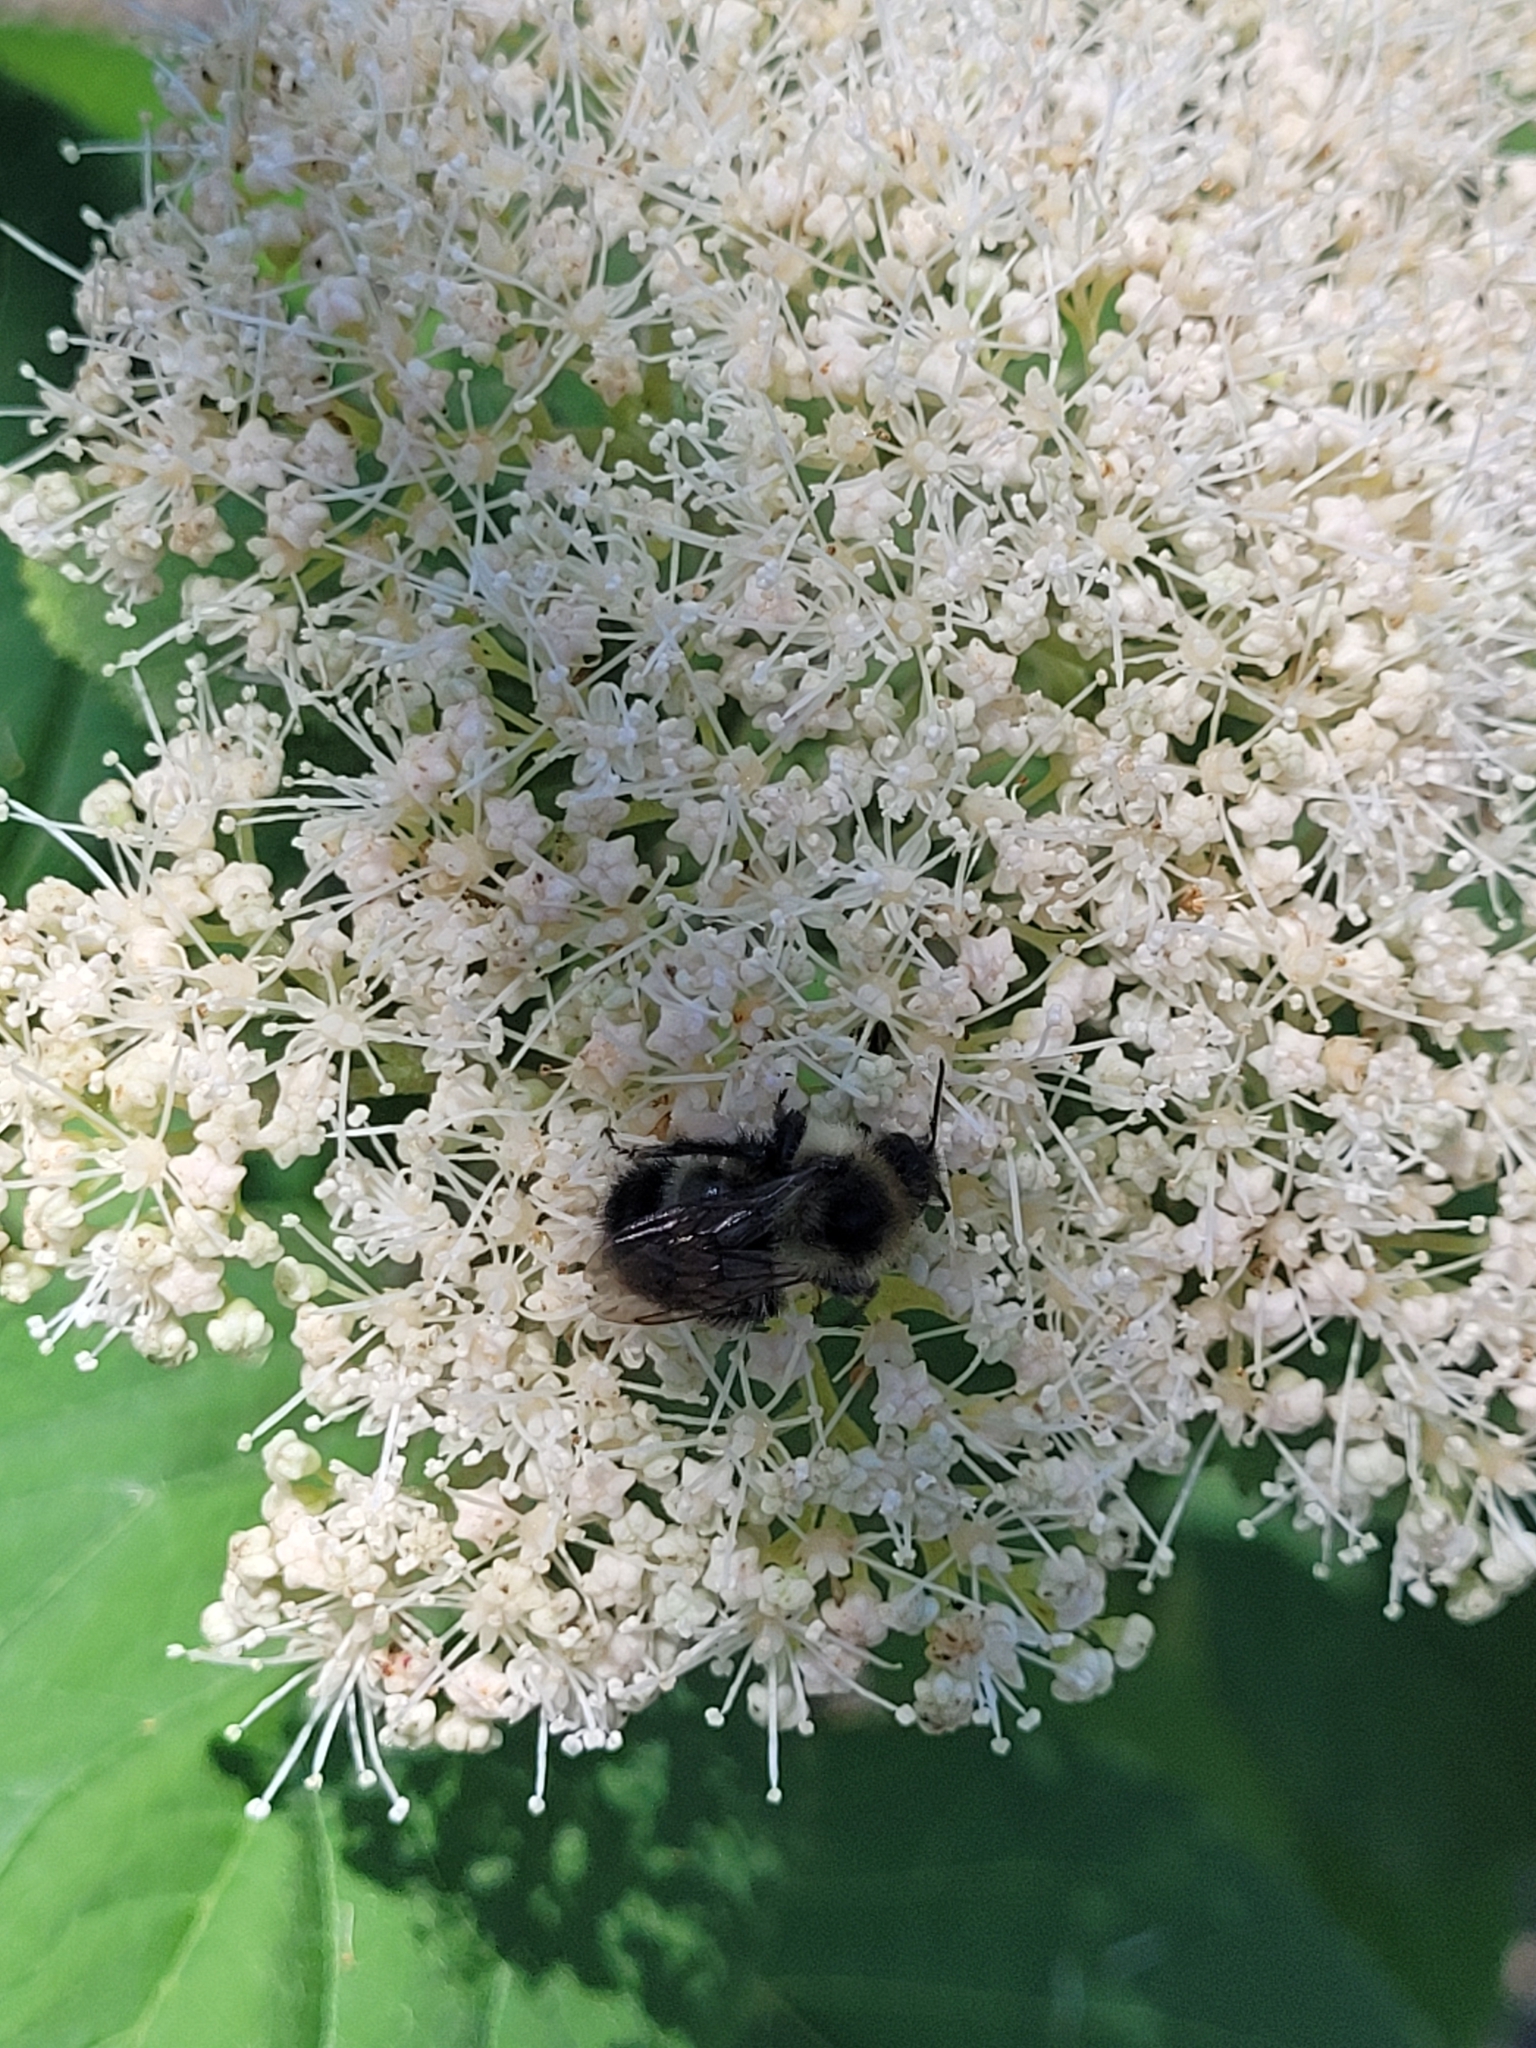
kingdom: Animalia
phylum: Arthropoda
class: Insecta
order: Hymenoptera
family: Apidae
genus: Bombus
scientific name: Bombus citrinus
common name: Lemon cuckoo bumble bee
